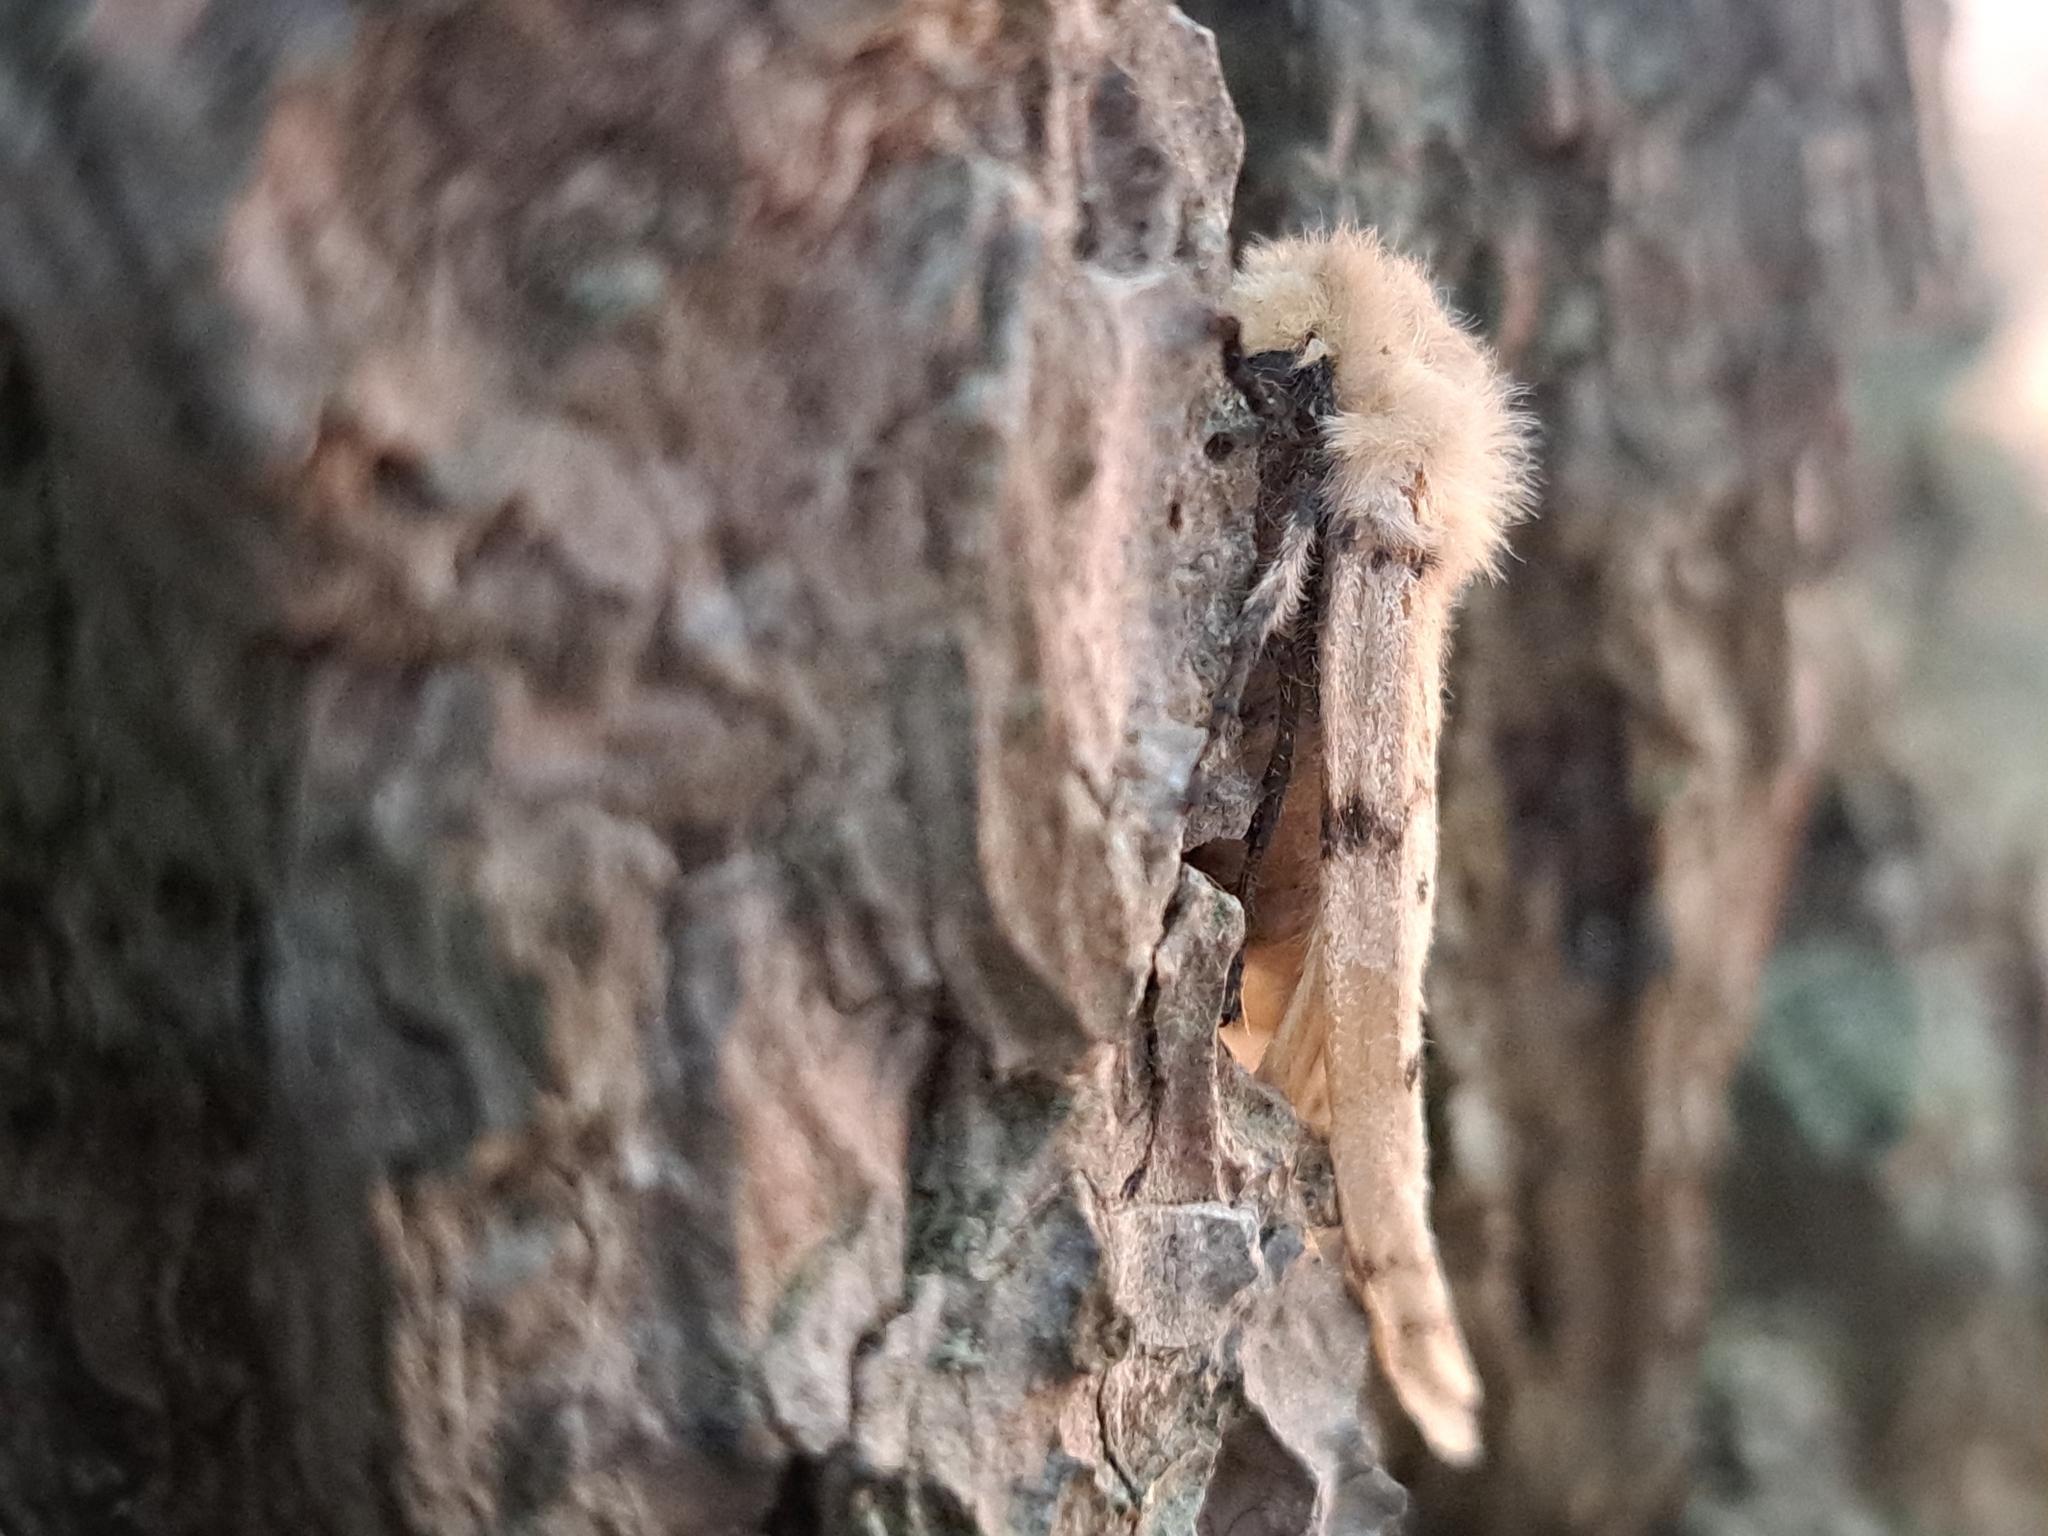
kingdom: Animalia
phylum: Arthropoda
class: Insecta
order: Lepidoptera
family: Erebidae
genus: Lymantria
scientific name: Lymantria dispar
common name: Gypsy moth
